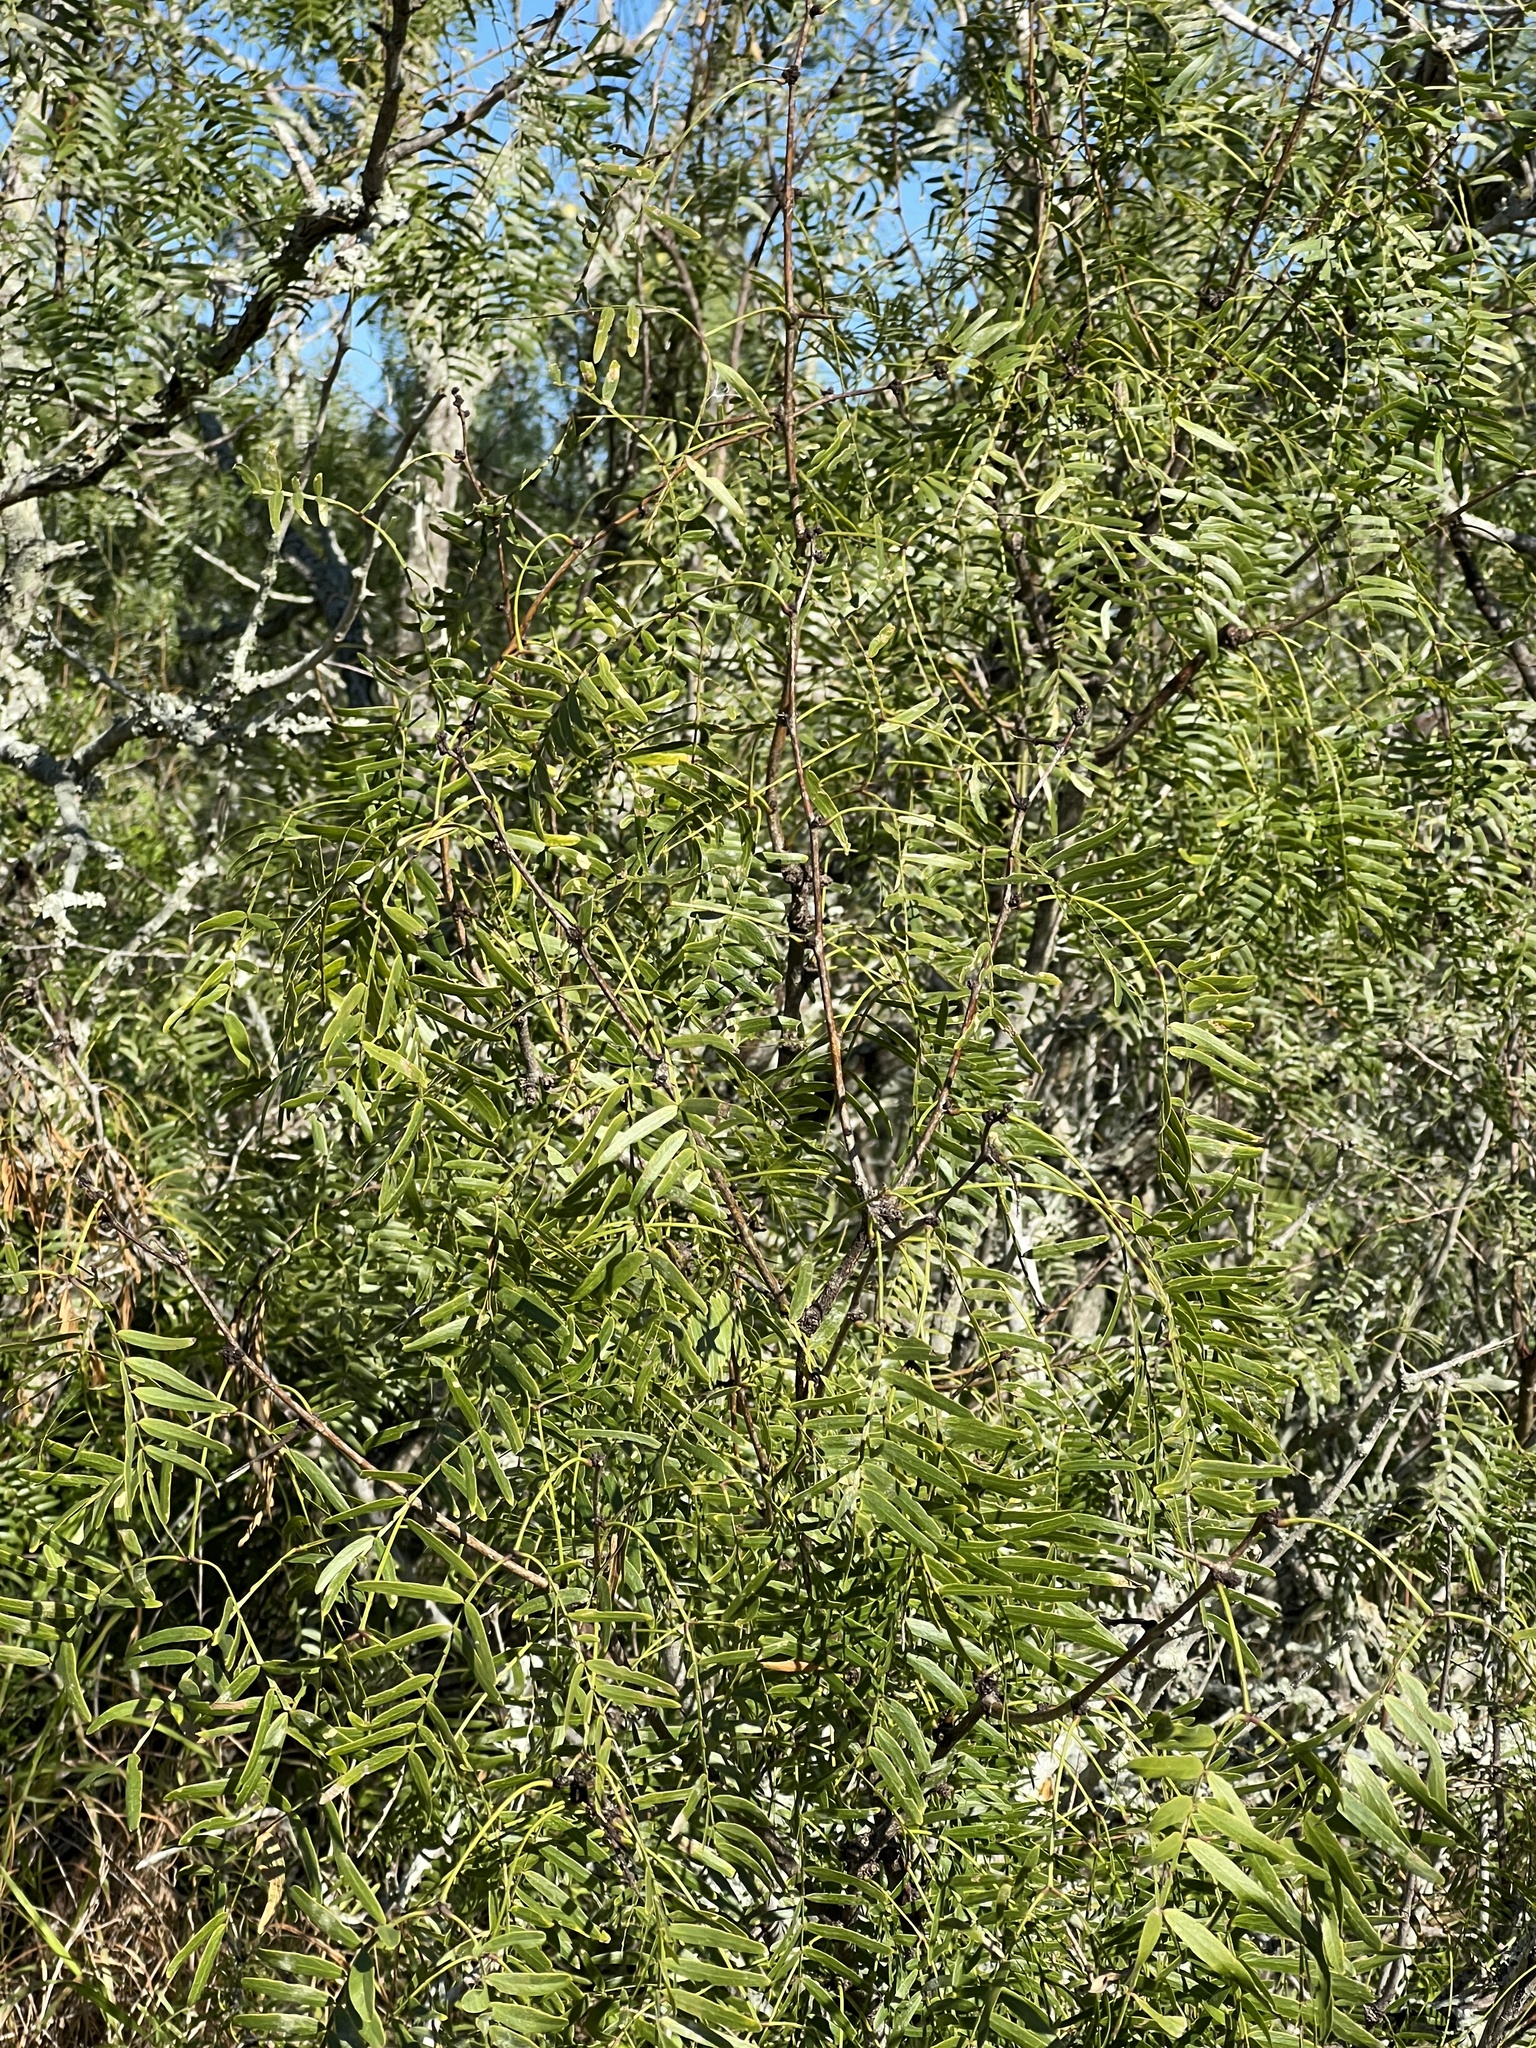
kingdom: Plantae
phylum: Tracheophyta
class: Magnoliopsida
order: Fabales
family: Fabaceae
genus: Prosopis
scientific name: Prosopis glandulosa
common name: Honey mesquite
